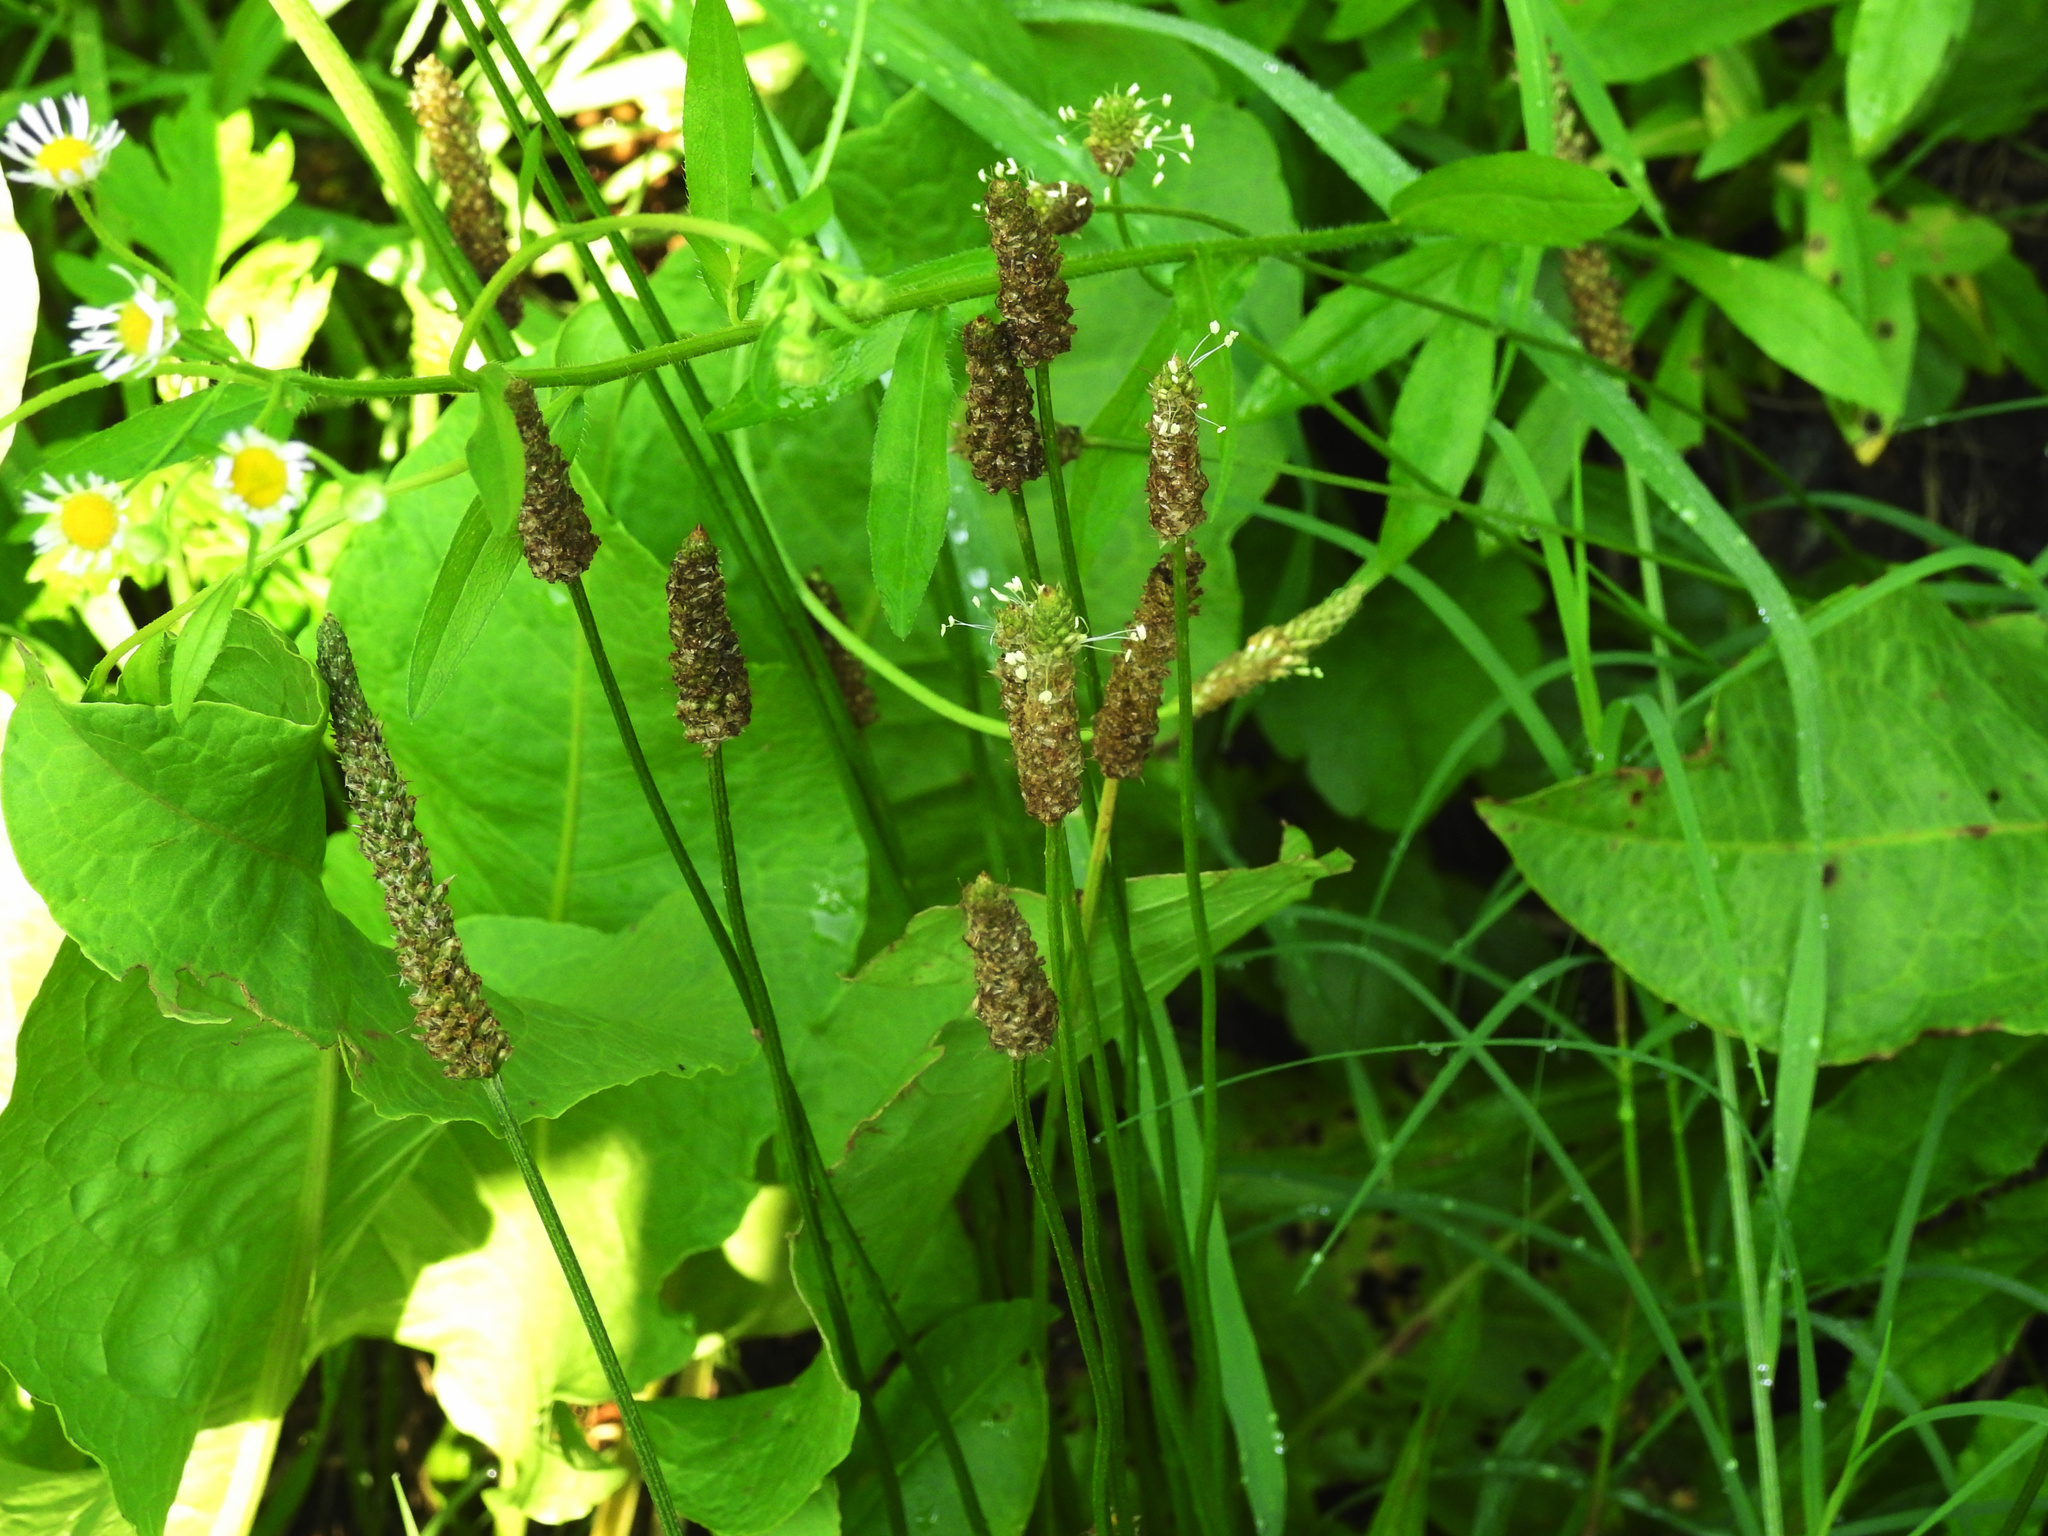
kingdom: Plantae
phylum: Tracheophyta
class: Magnoliopsida
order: Lamiales
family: Plantaginaceae
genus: Plantago
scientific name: Plantago lanceolata
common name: Ribwort plantain
